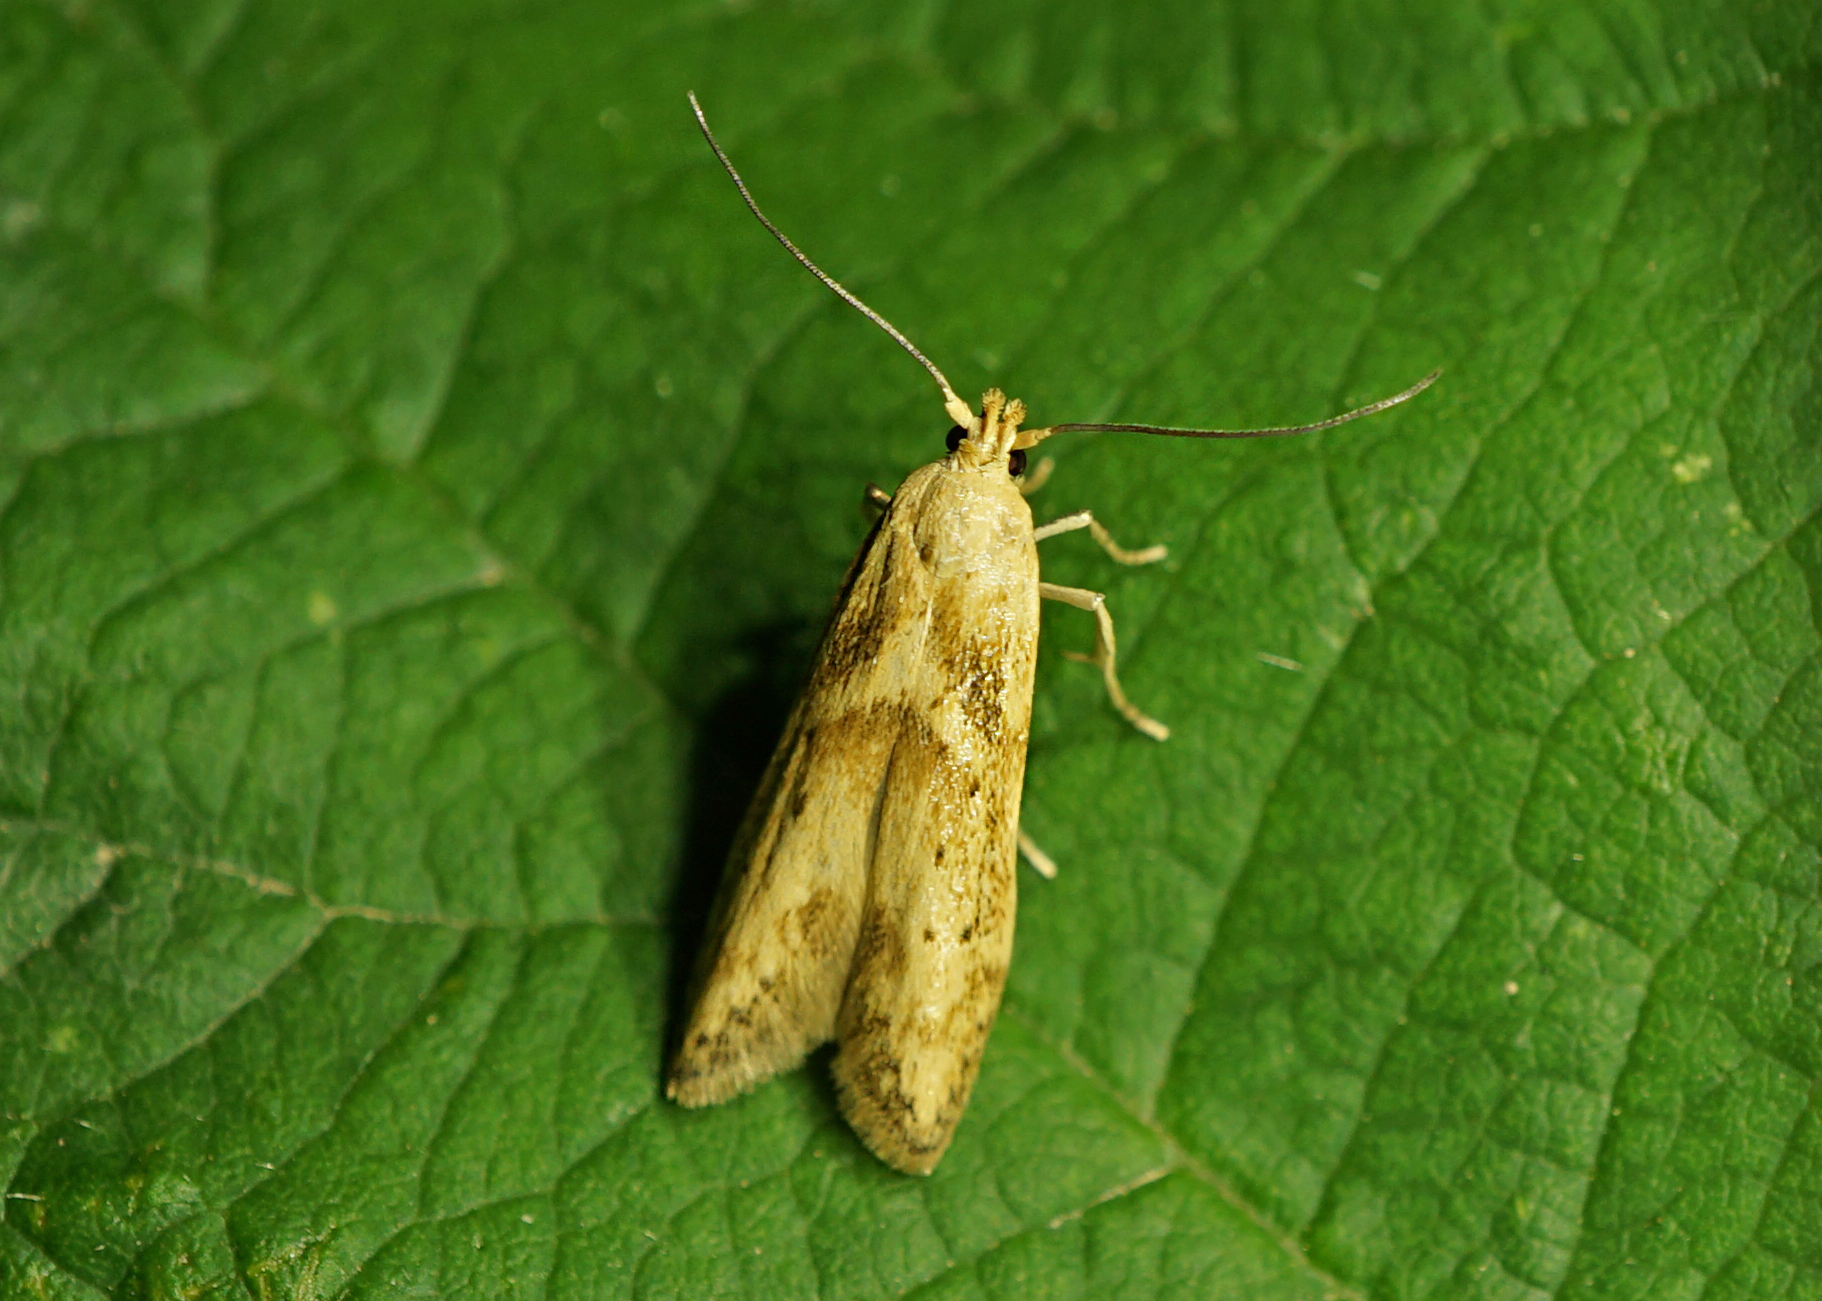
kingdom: Animalia
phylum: Arthropoda
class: Insecta
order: Lepidoptera
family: Blastobasidae
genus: Blastobasis
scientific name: Blastobasis lacticolella
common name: London dowd
